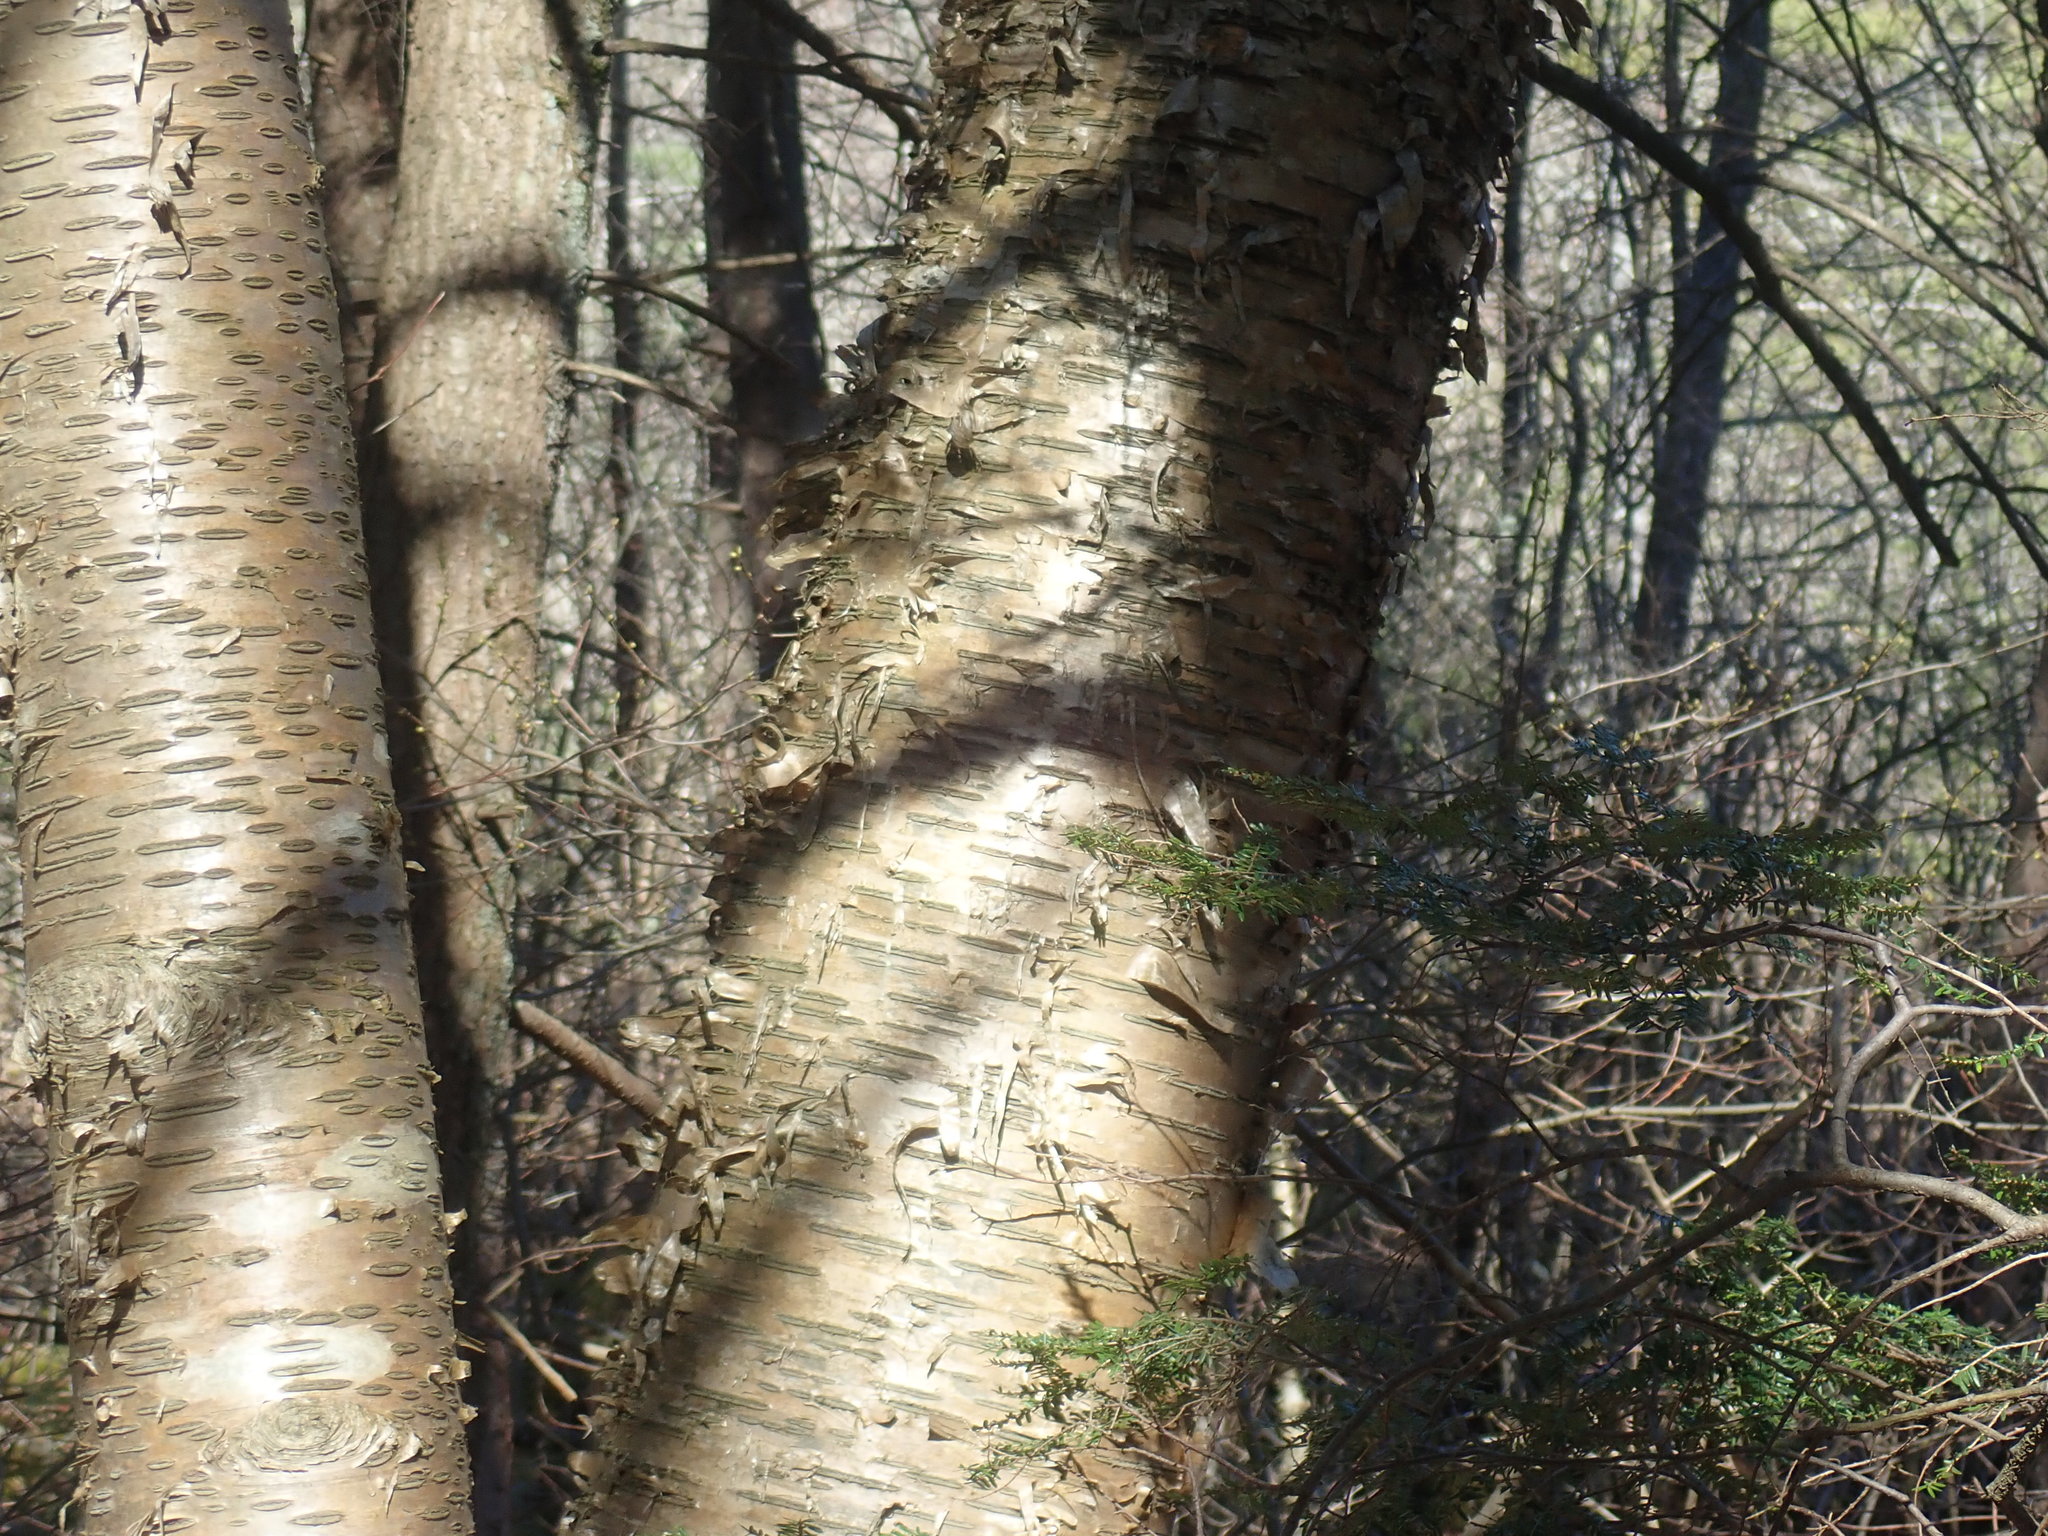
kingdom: Plantae
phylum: Tracheophyta
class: Magnoliopsida
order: Fagales
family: Betulaceae
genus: Betula
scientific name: Betula alleghaniensis
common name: Yellow birch
